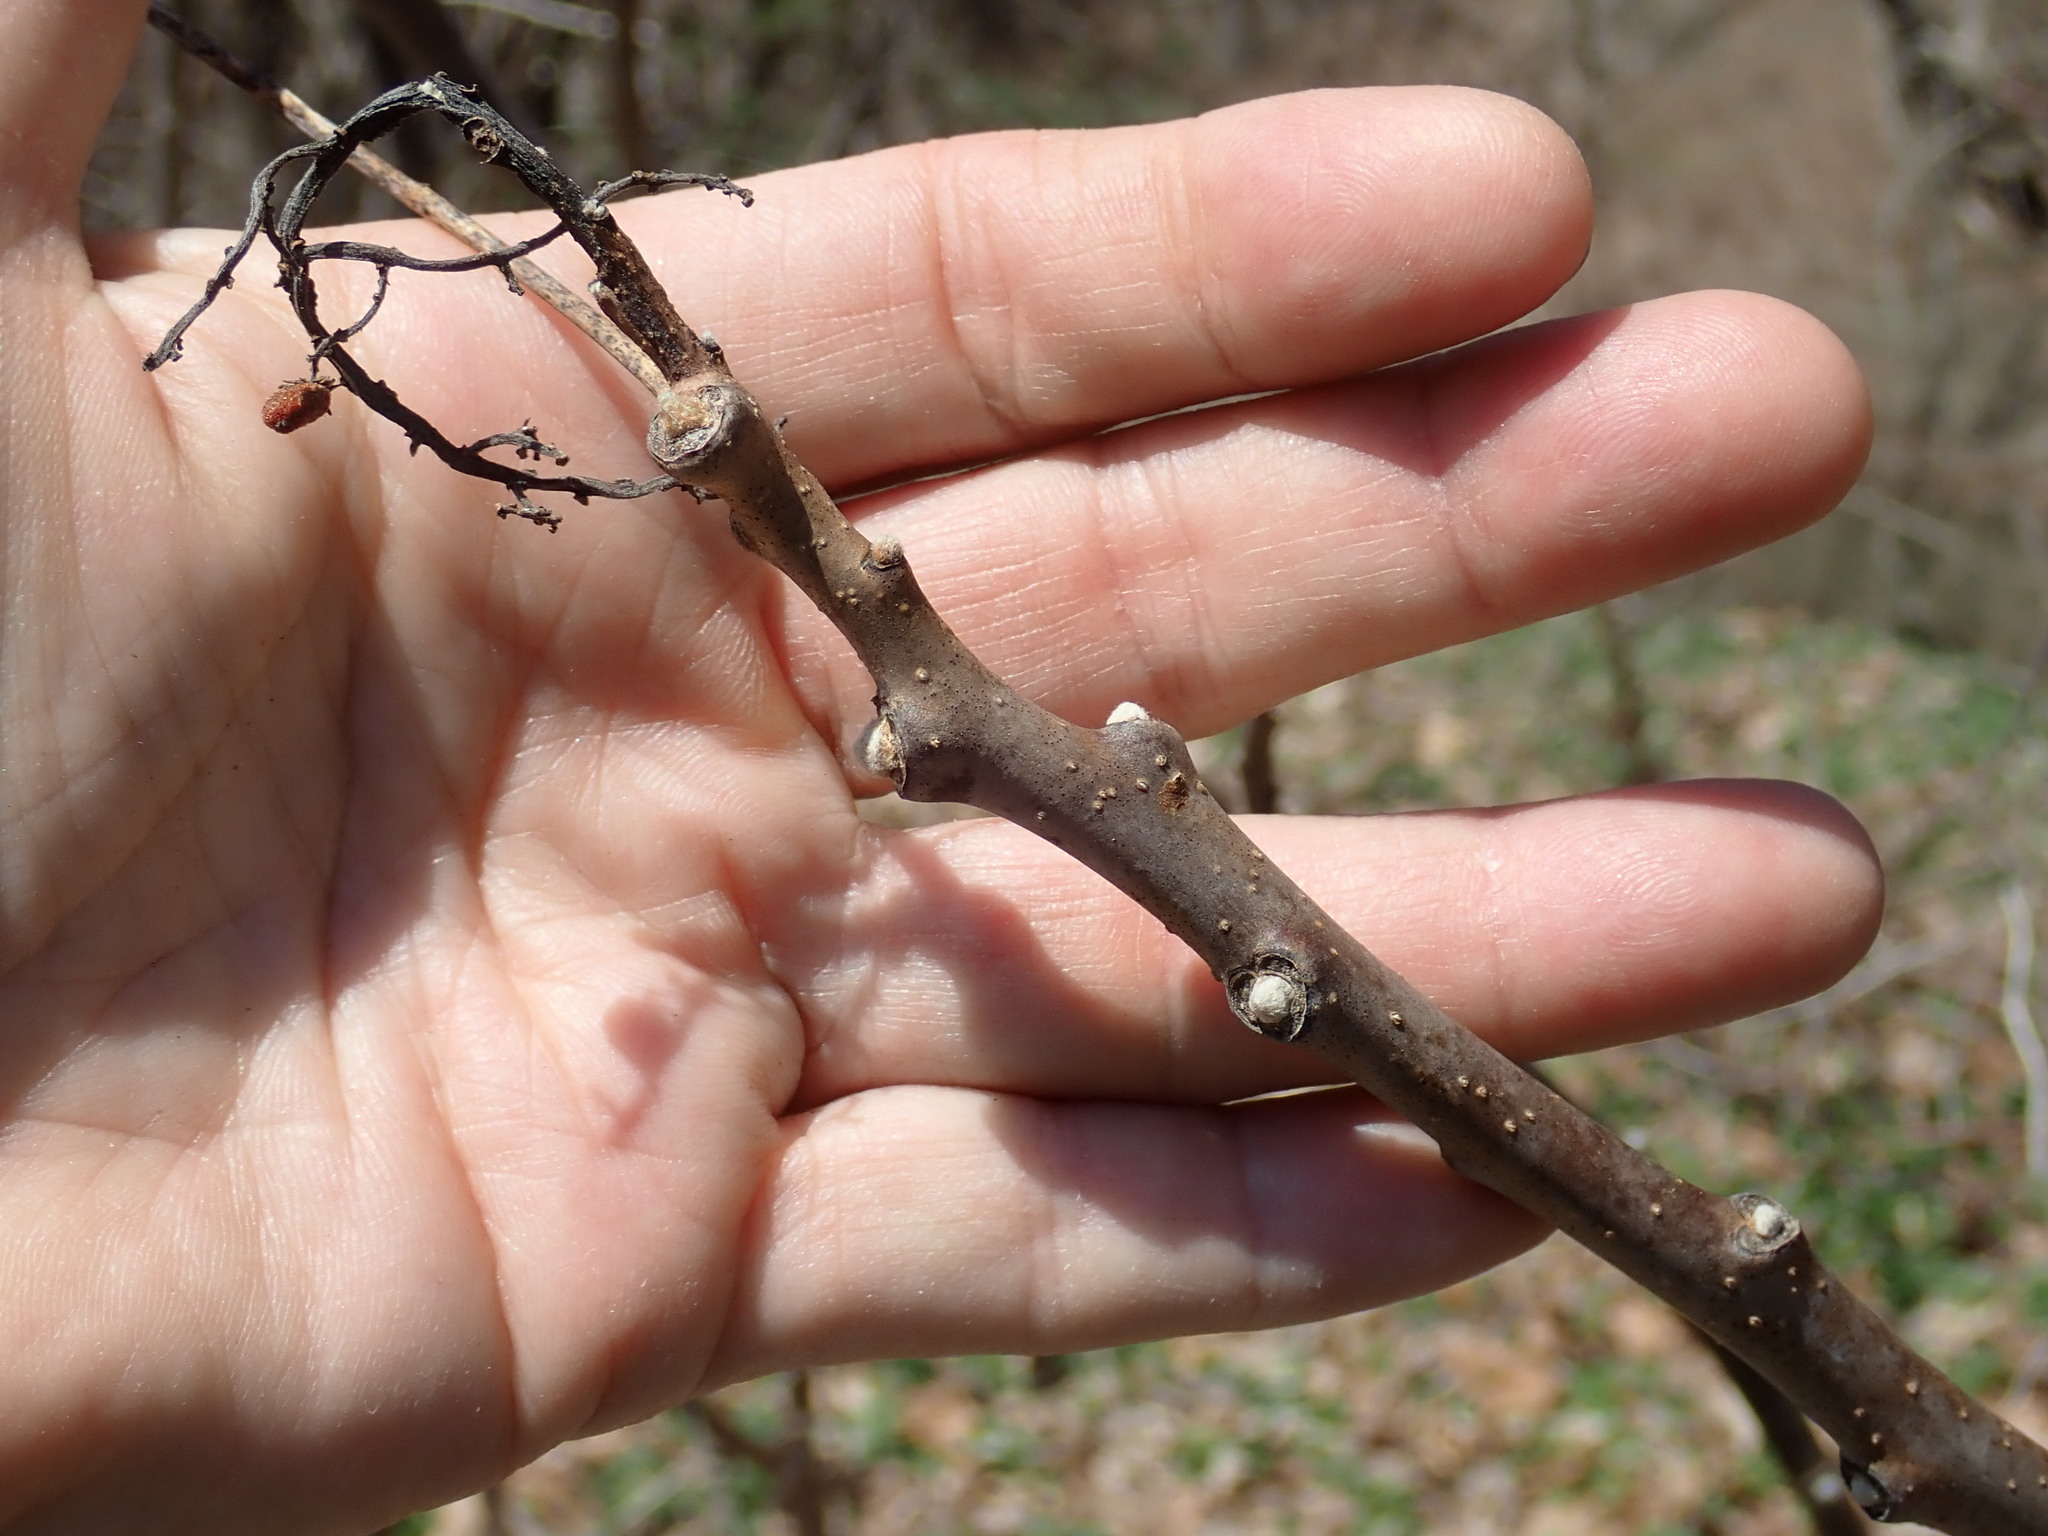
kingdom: Plantae
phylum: Tracheophyta
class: Magnoliopsida
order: Sapindales
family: Anacardiaceae
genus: Rhus
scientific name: Rhus glabra
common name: Scarlet sumac
